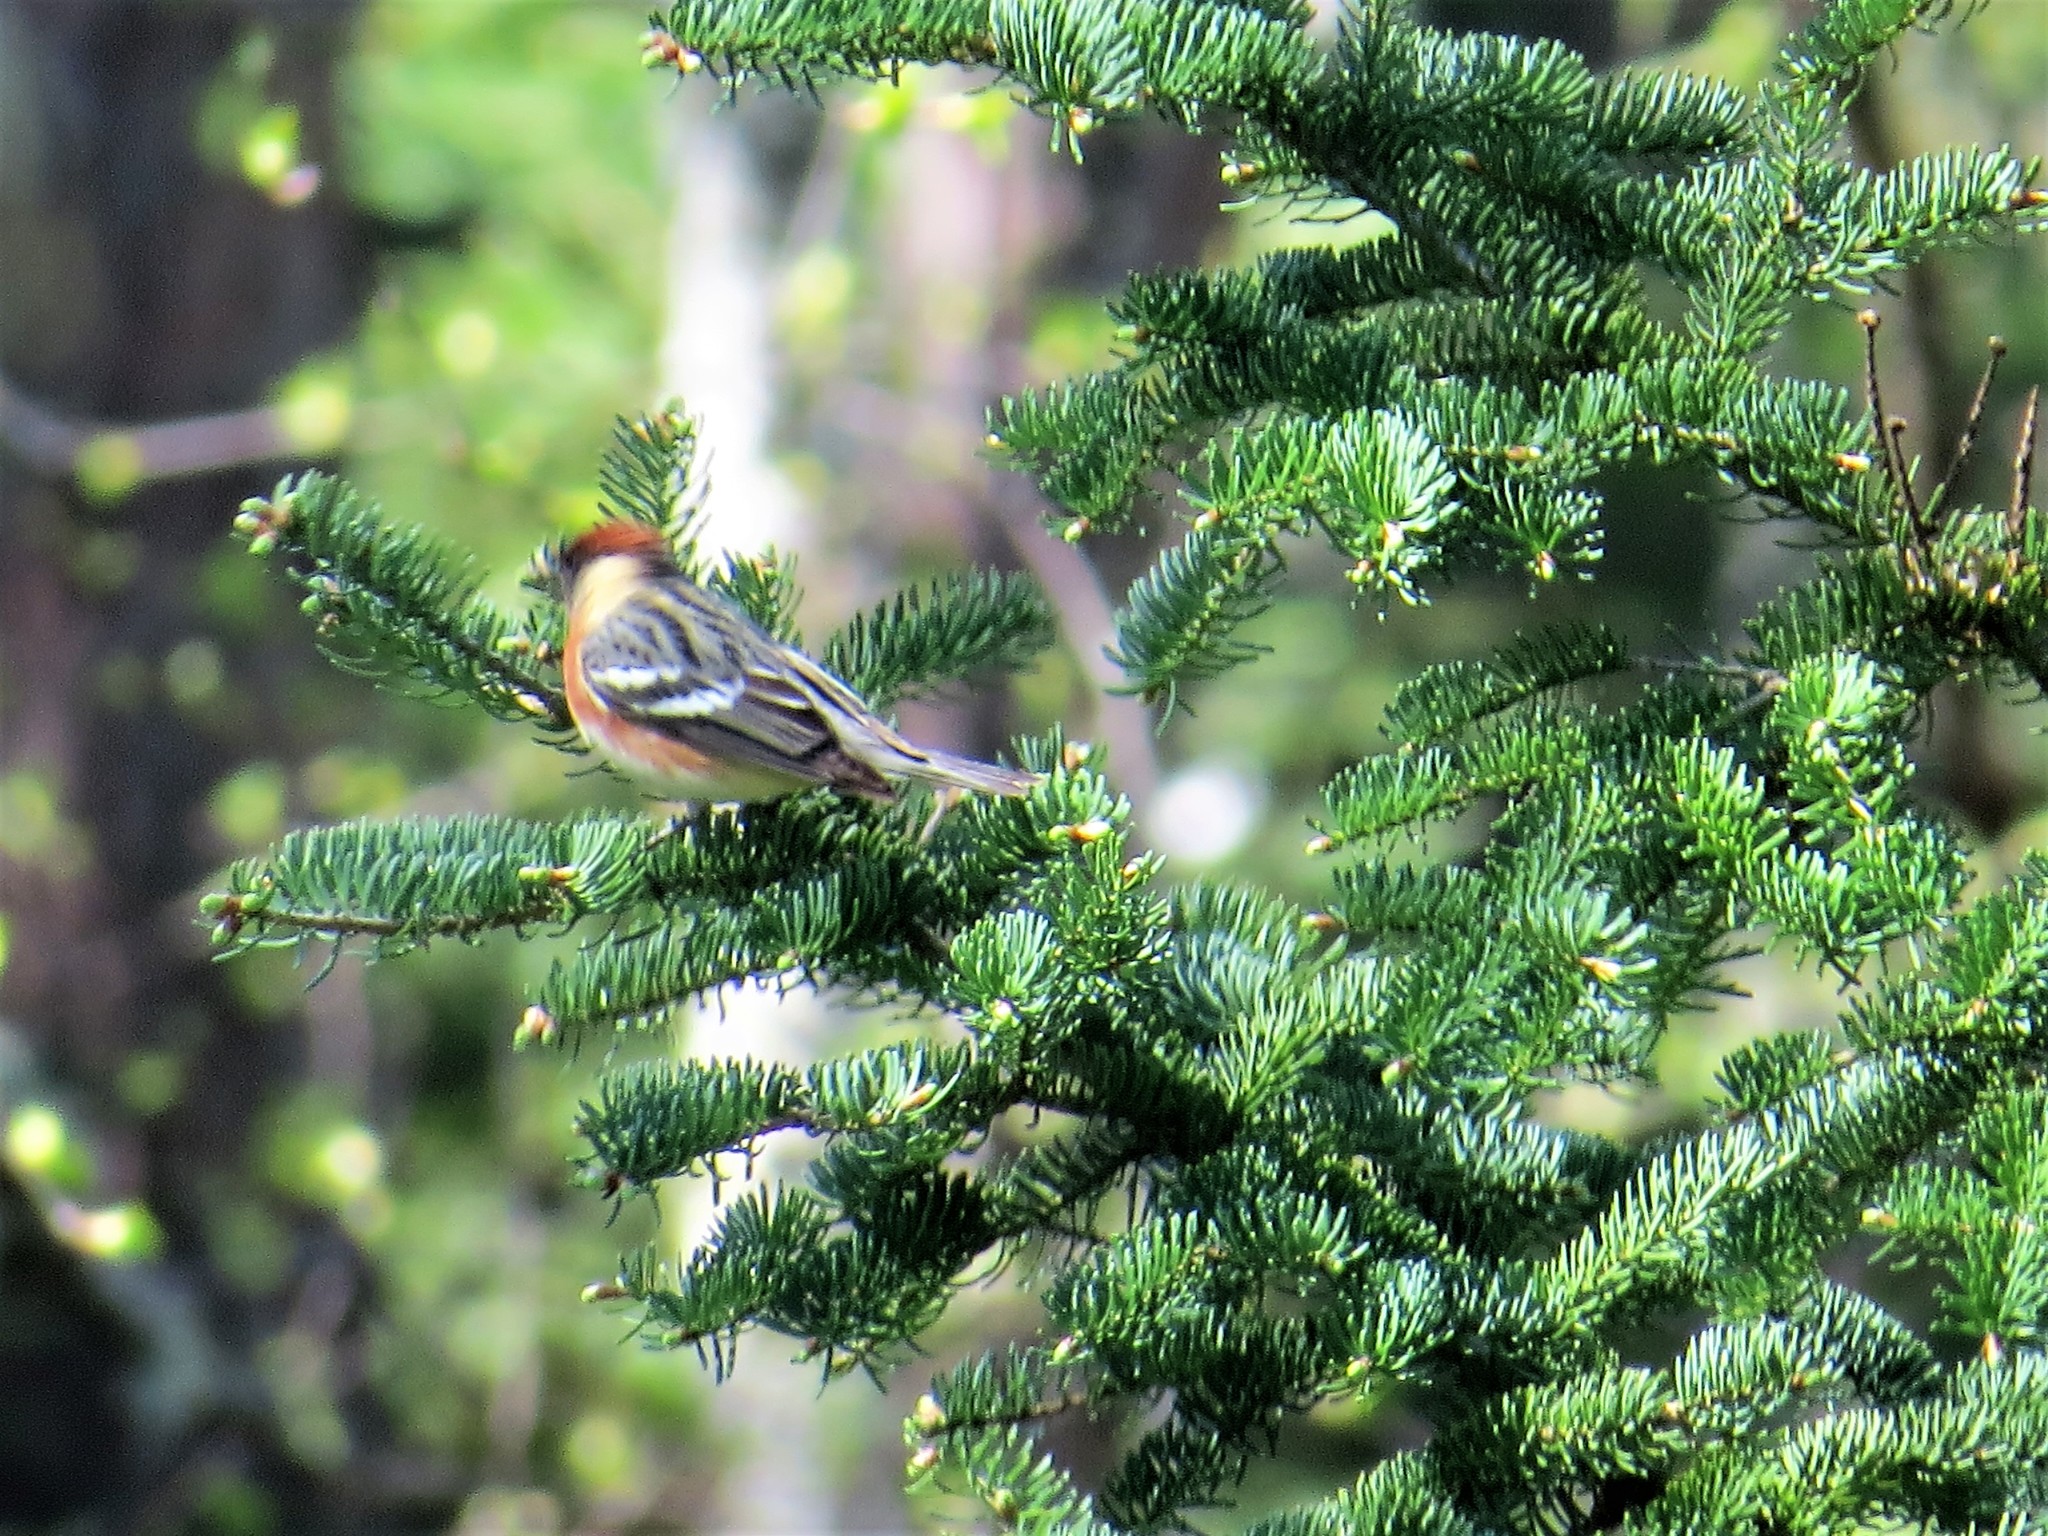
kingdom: Animalia
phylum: Chordata
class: Aves
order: Passeriformes
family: Parulidae
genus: Setophaga
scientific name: Setophaga castanea
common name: Bay-breasted warbler
